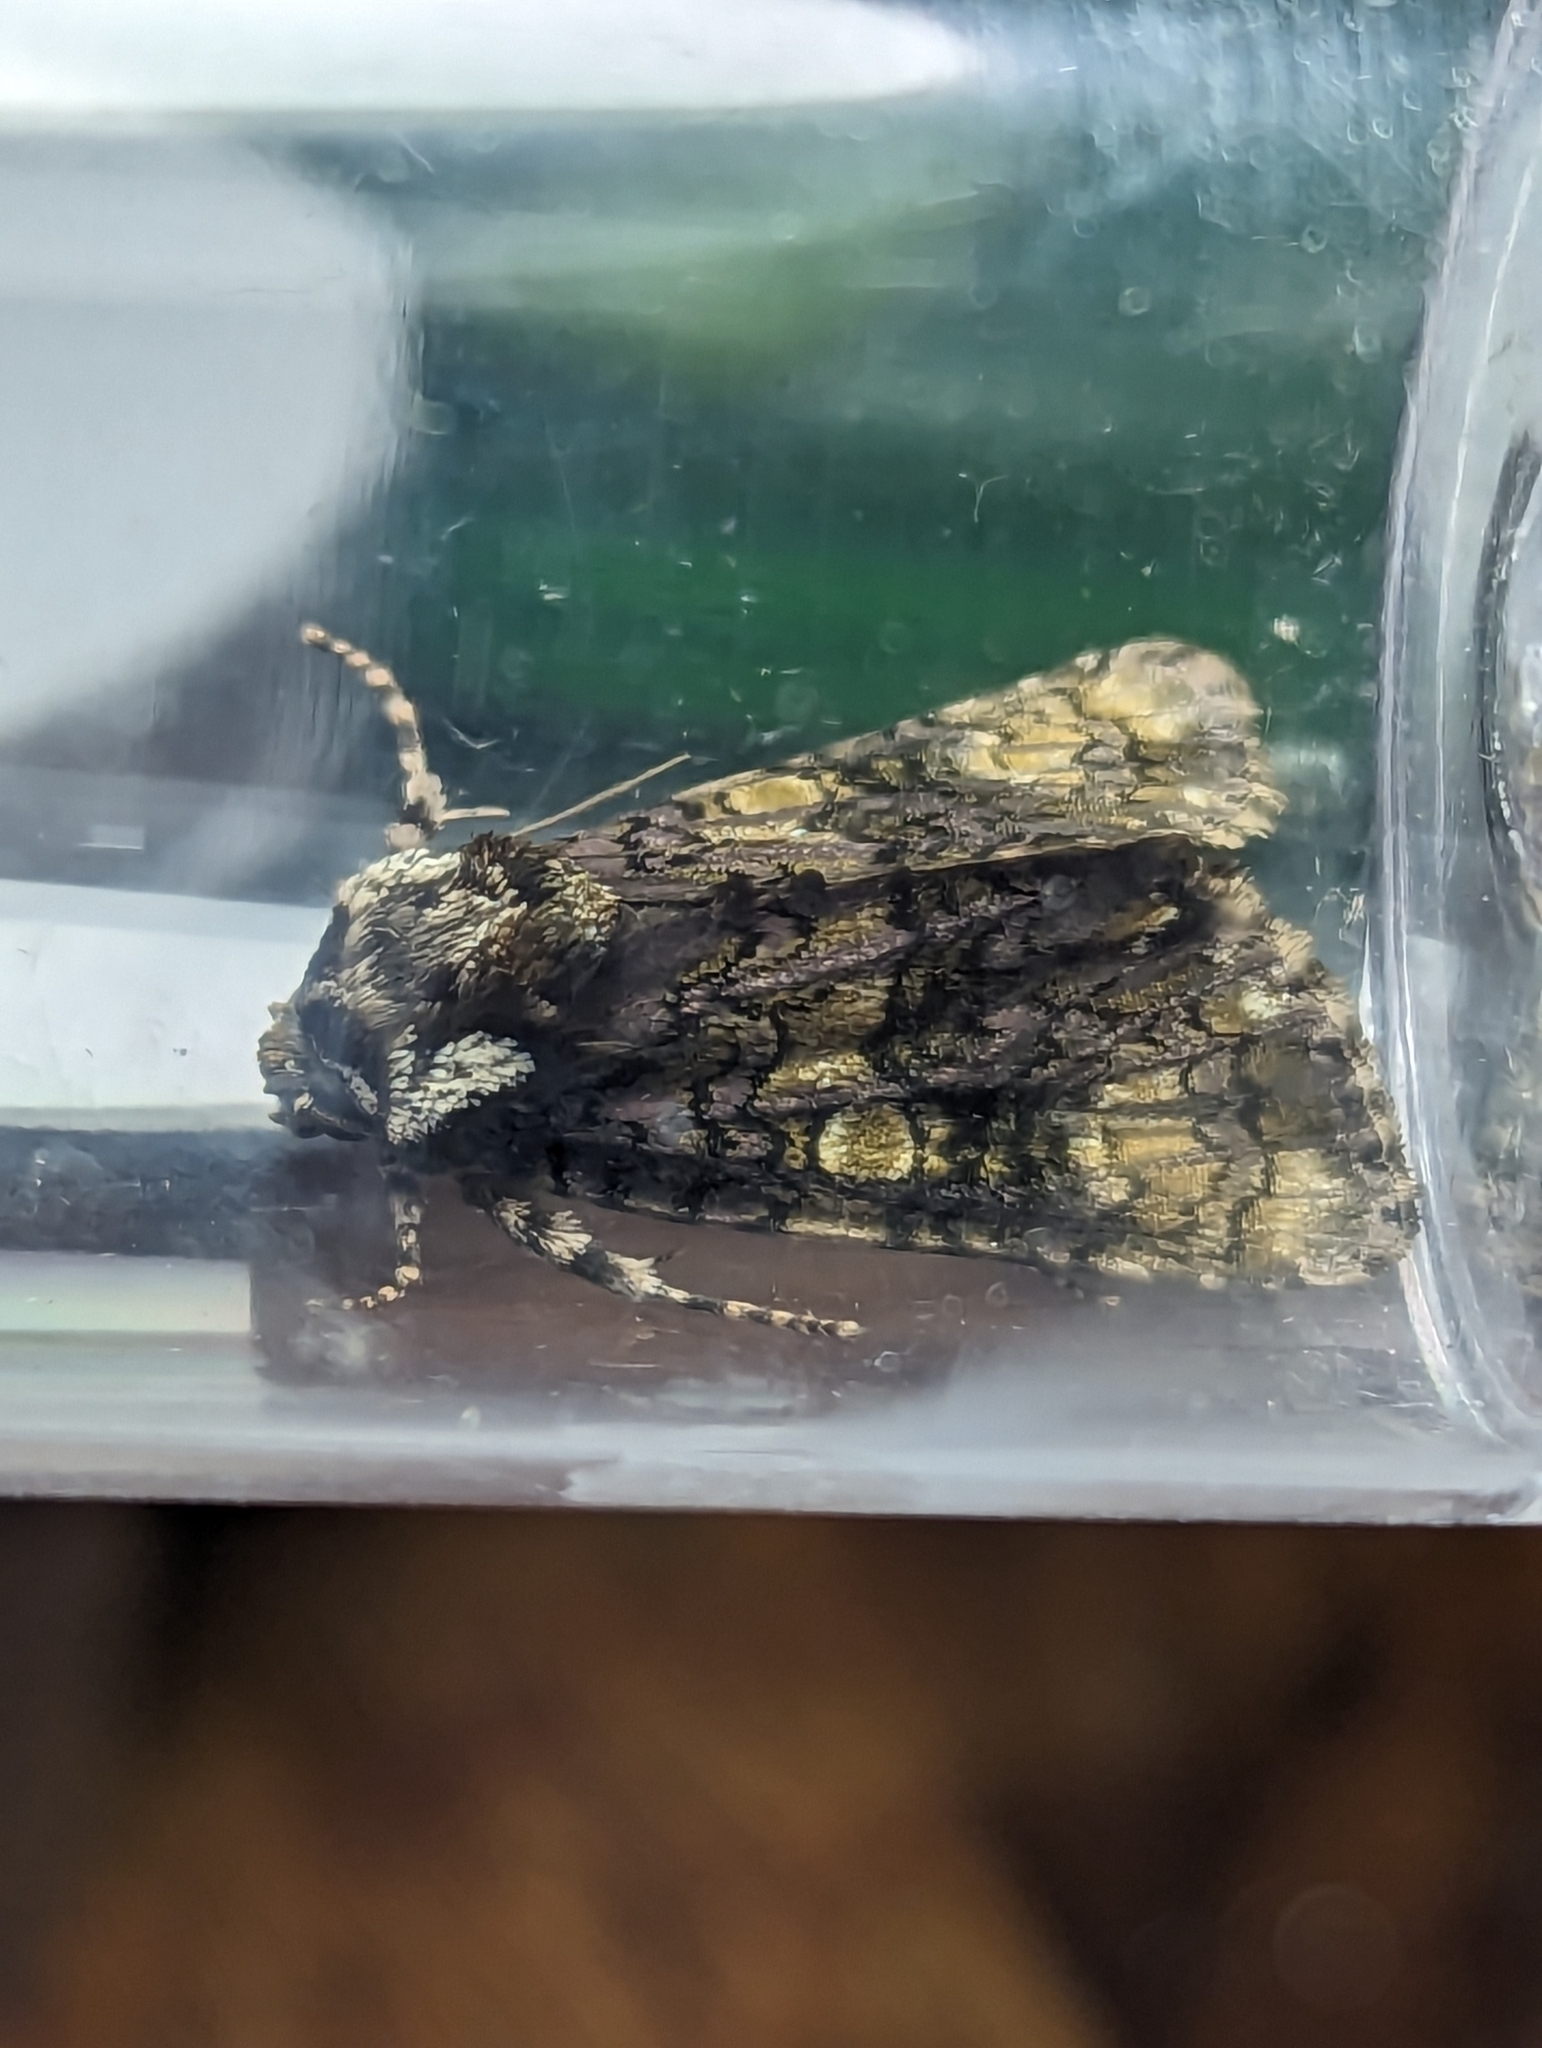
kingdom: Animalia
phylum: Arthropoda
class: Insecta
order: Lepidoptera
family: Noctuidae
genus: Craniophora
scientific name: Craniophora ligustri
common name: Coronet
